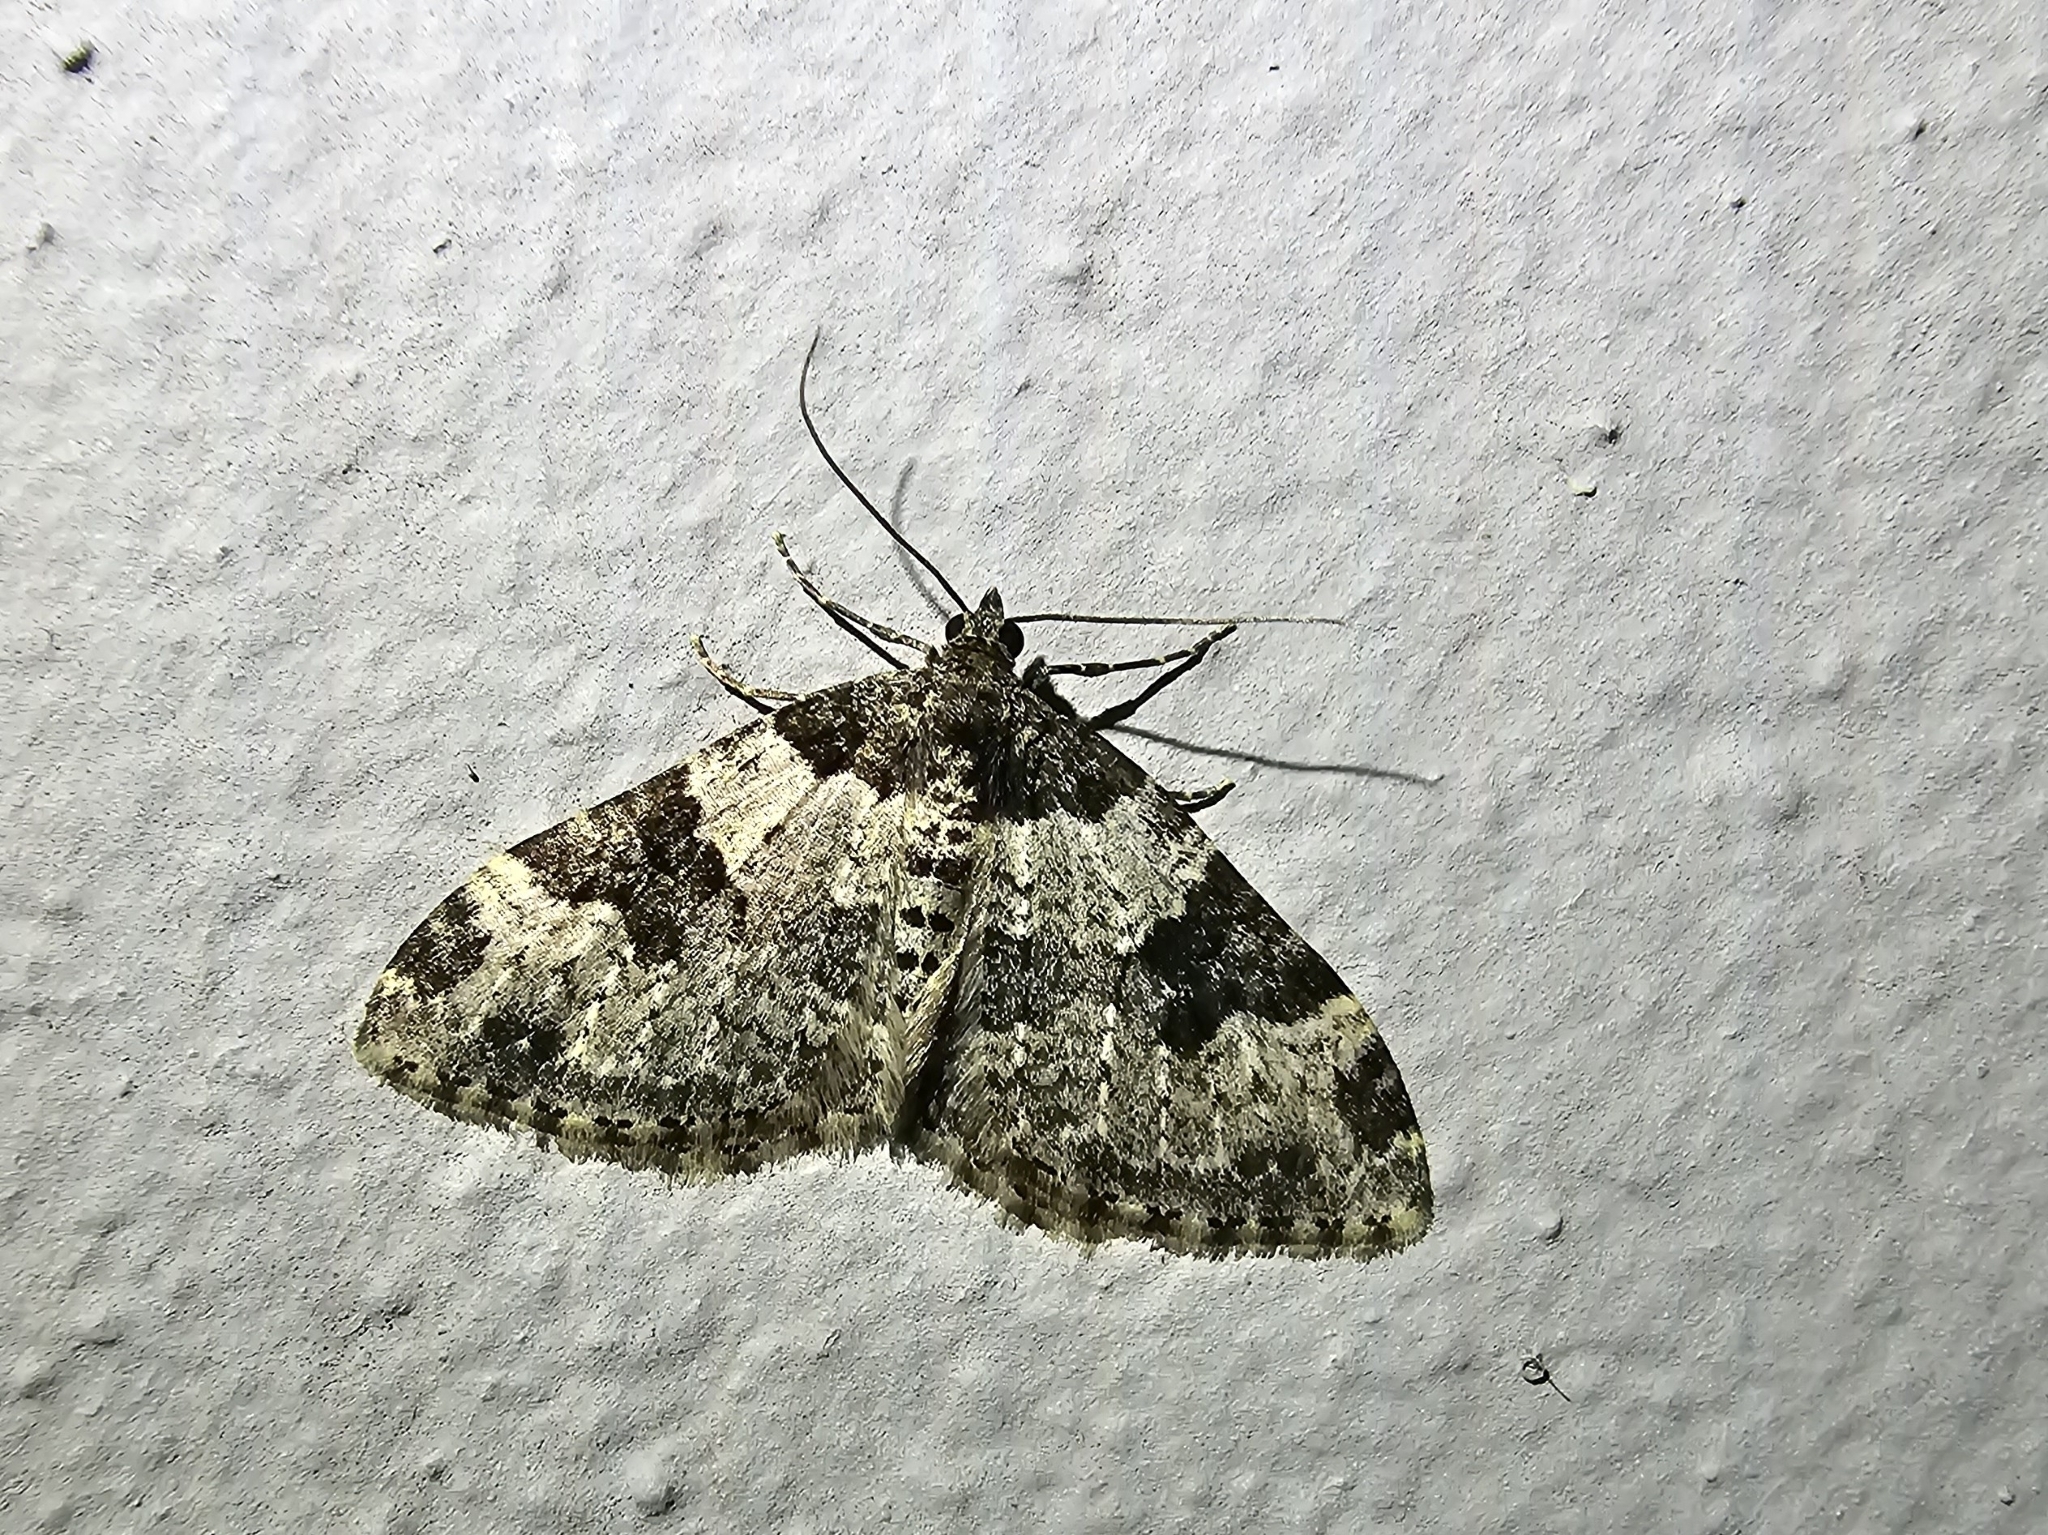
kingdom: Animalia
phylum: Arthropoda
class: Insecta
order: Lepidoptera
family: Geometridae
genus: Xanthorhoe
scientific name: Xanthorhoe fluctuata
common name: Garden carpet
